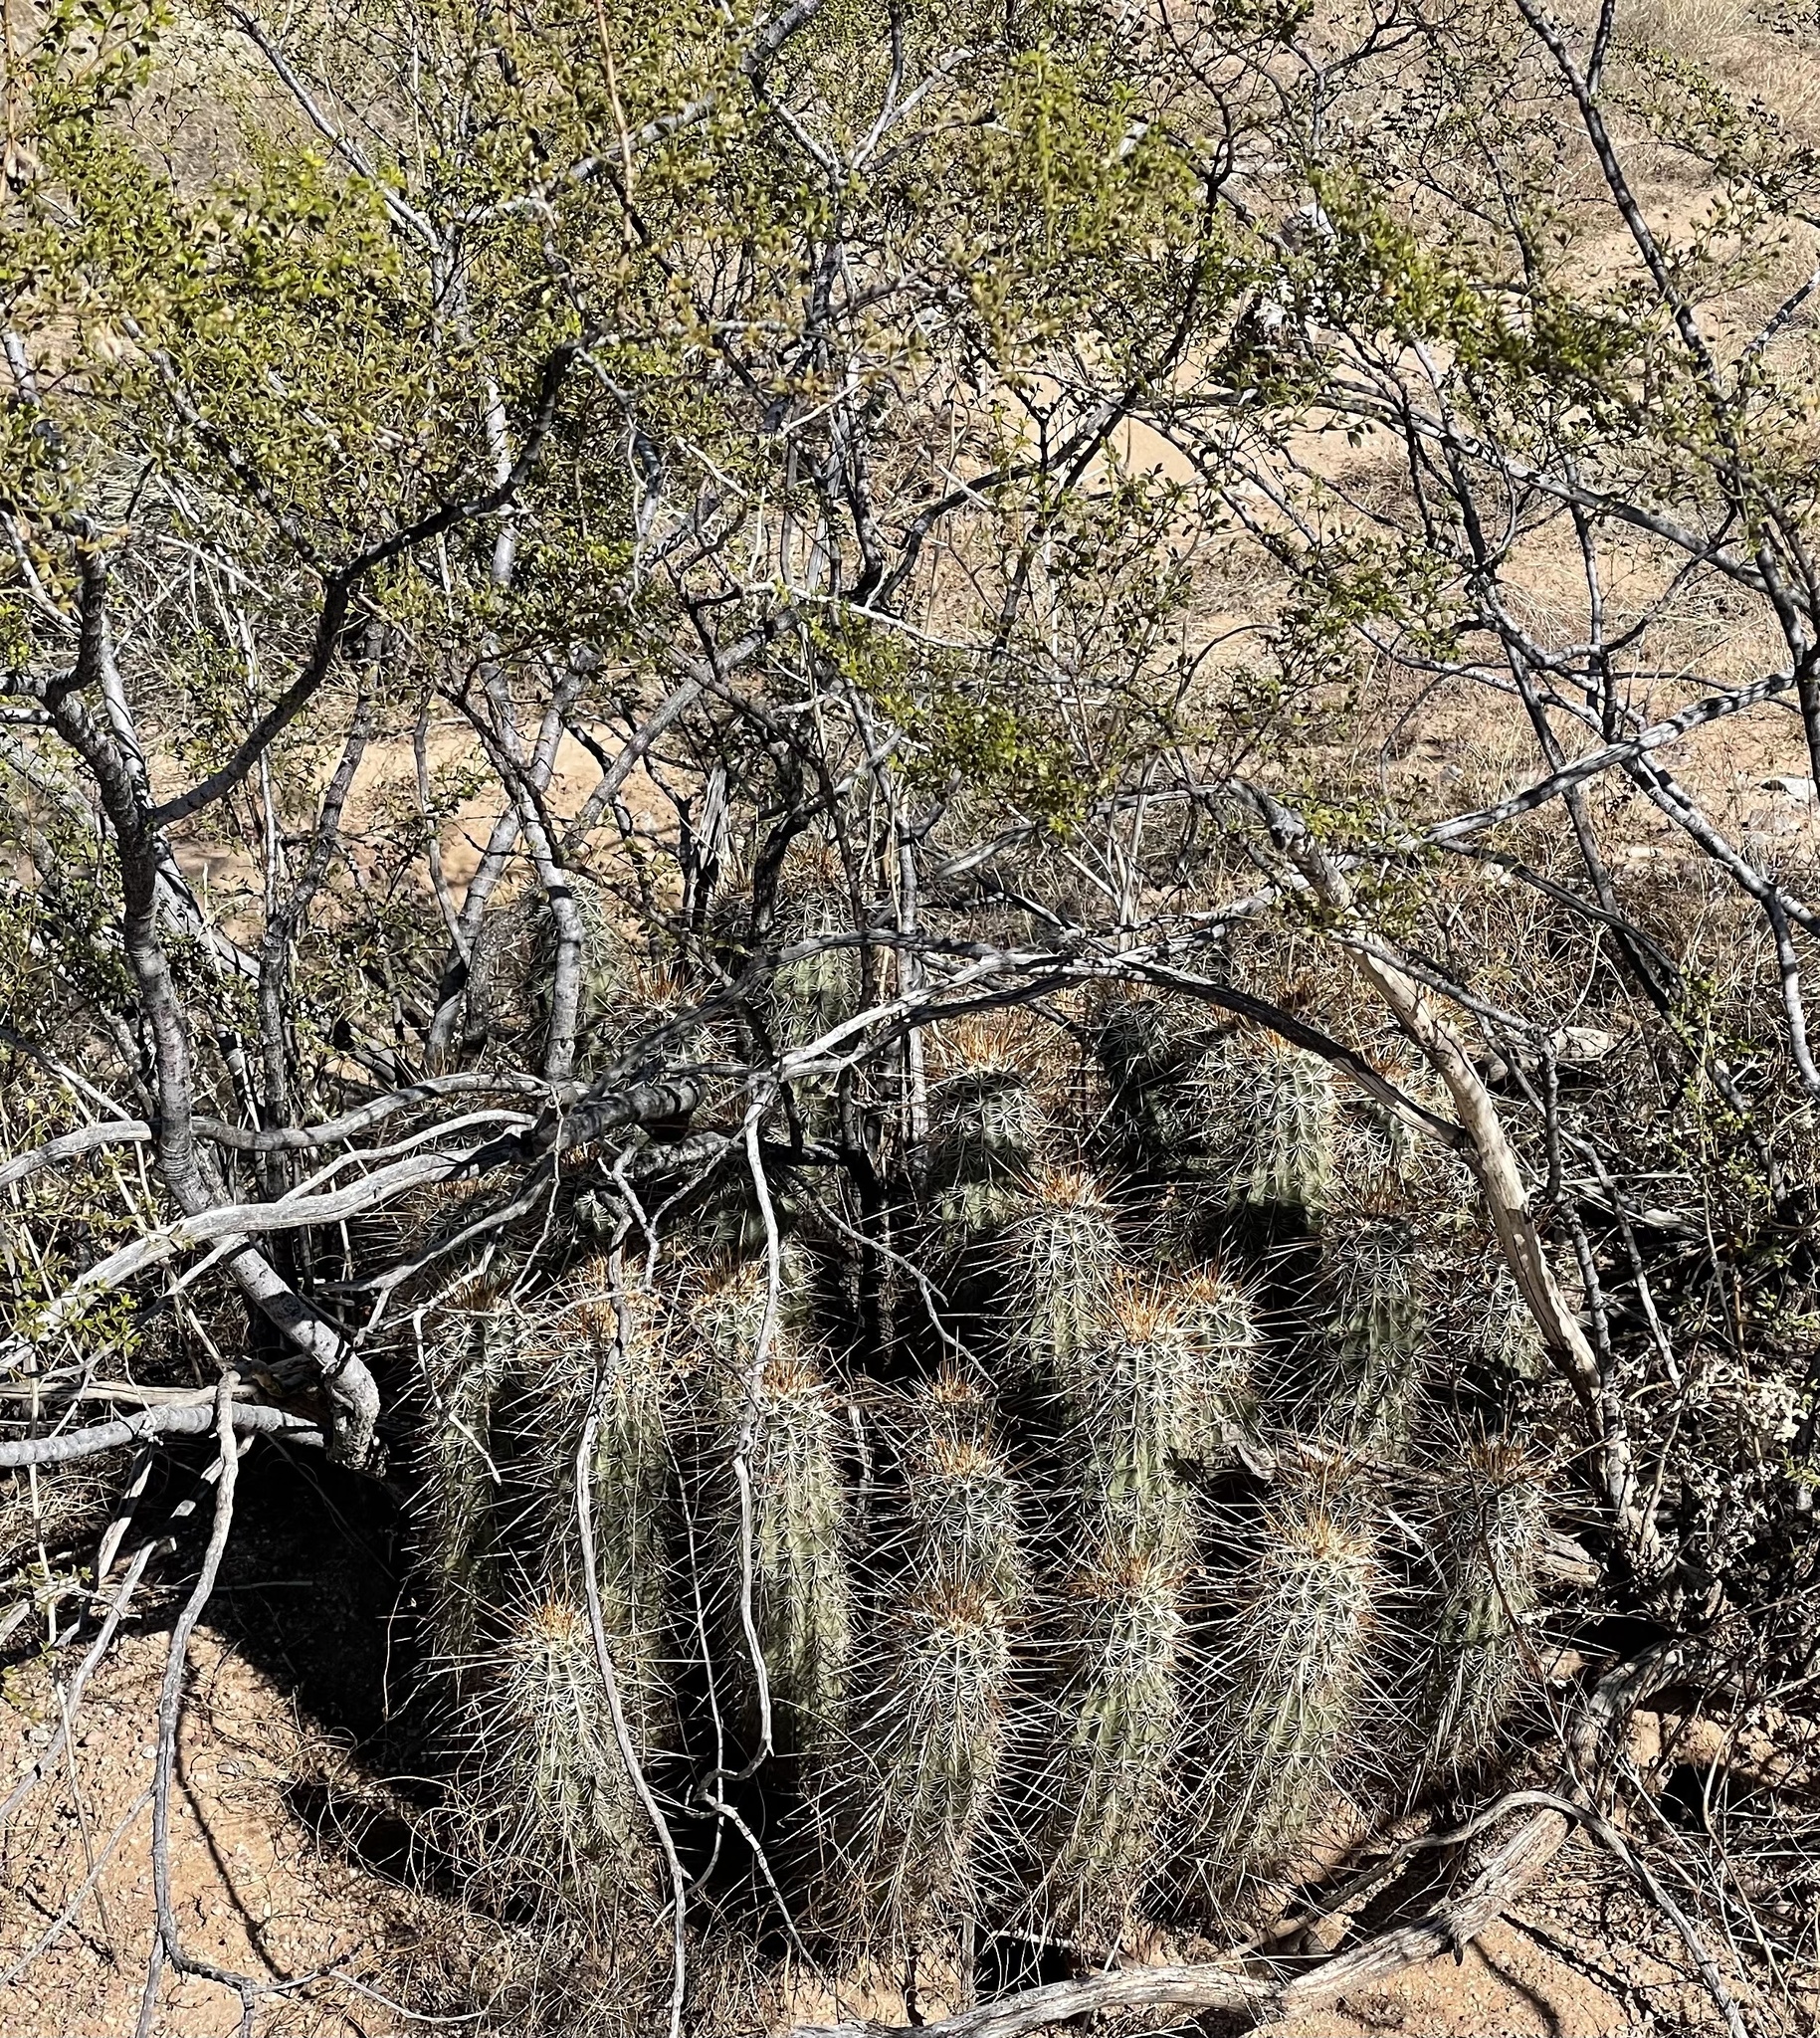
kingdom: Plantae
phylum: Tracheophyta
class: Magnoliopsida
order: Caryophyllales
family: Cactaceae
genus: Echinocereus
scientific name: Echinocereus engelmannii
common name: Engelmann's hedgehog cactus
